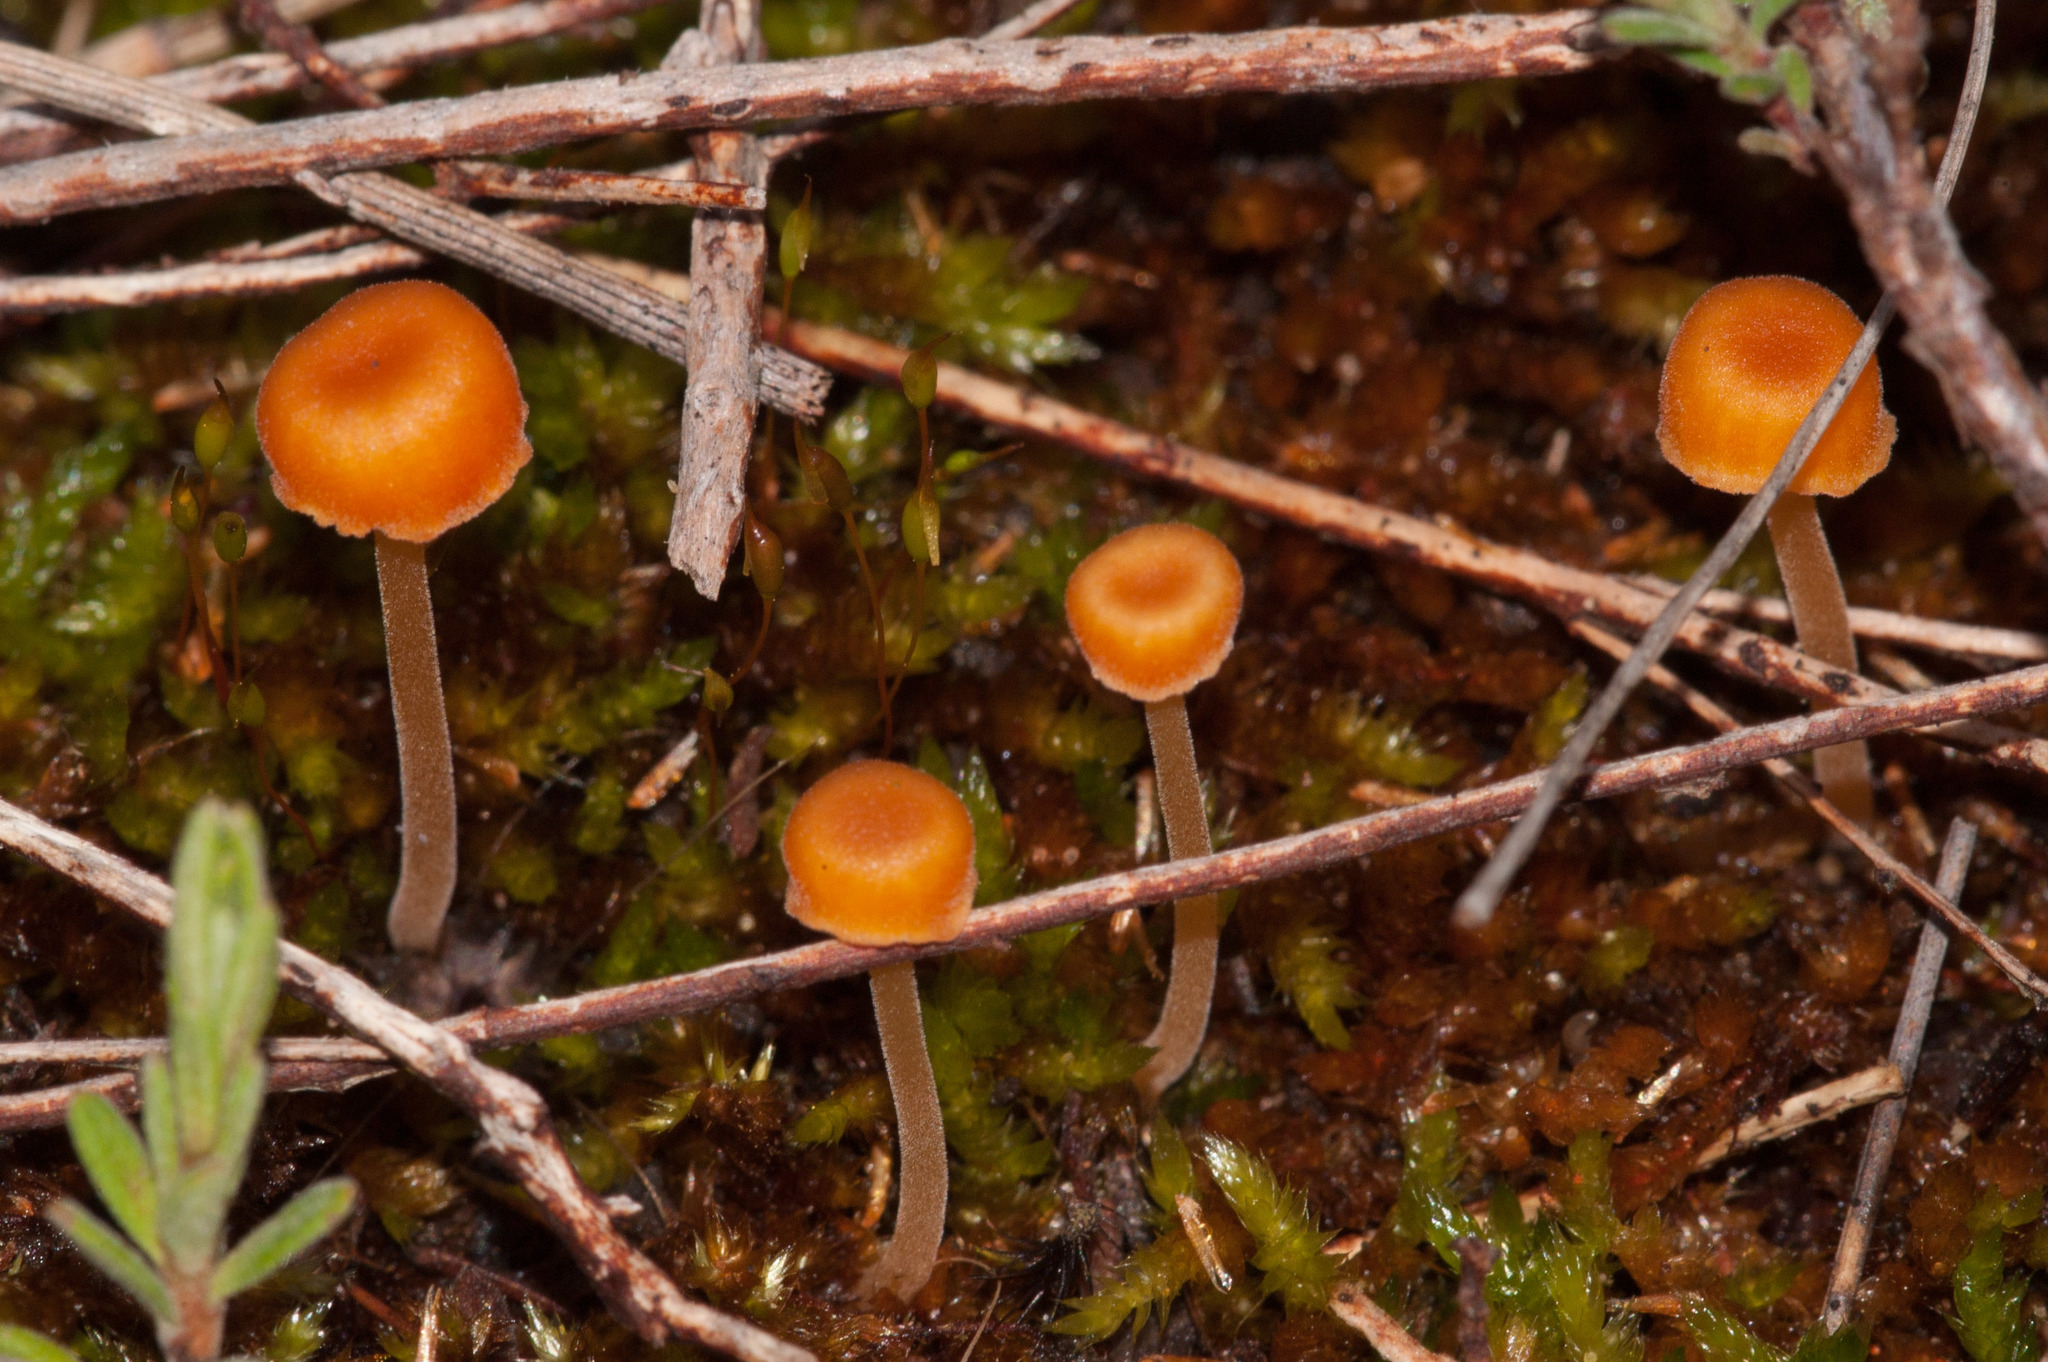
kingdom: Fungi
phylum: Basidiomycota
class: Agaricomycetes
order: Hymenochaetales
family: Rickenellaceae
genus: Rickenella
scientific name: Rickenella fibula
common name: Orange mosscap
